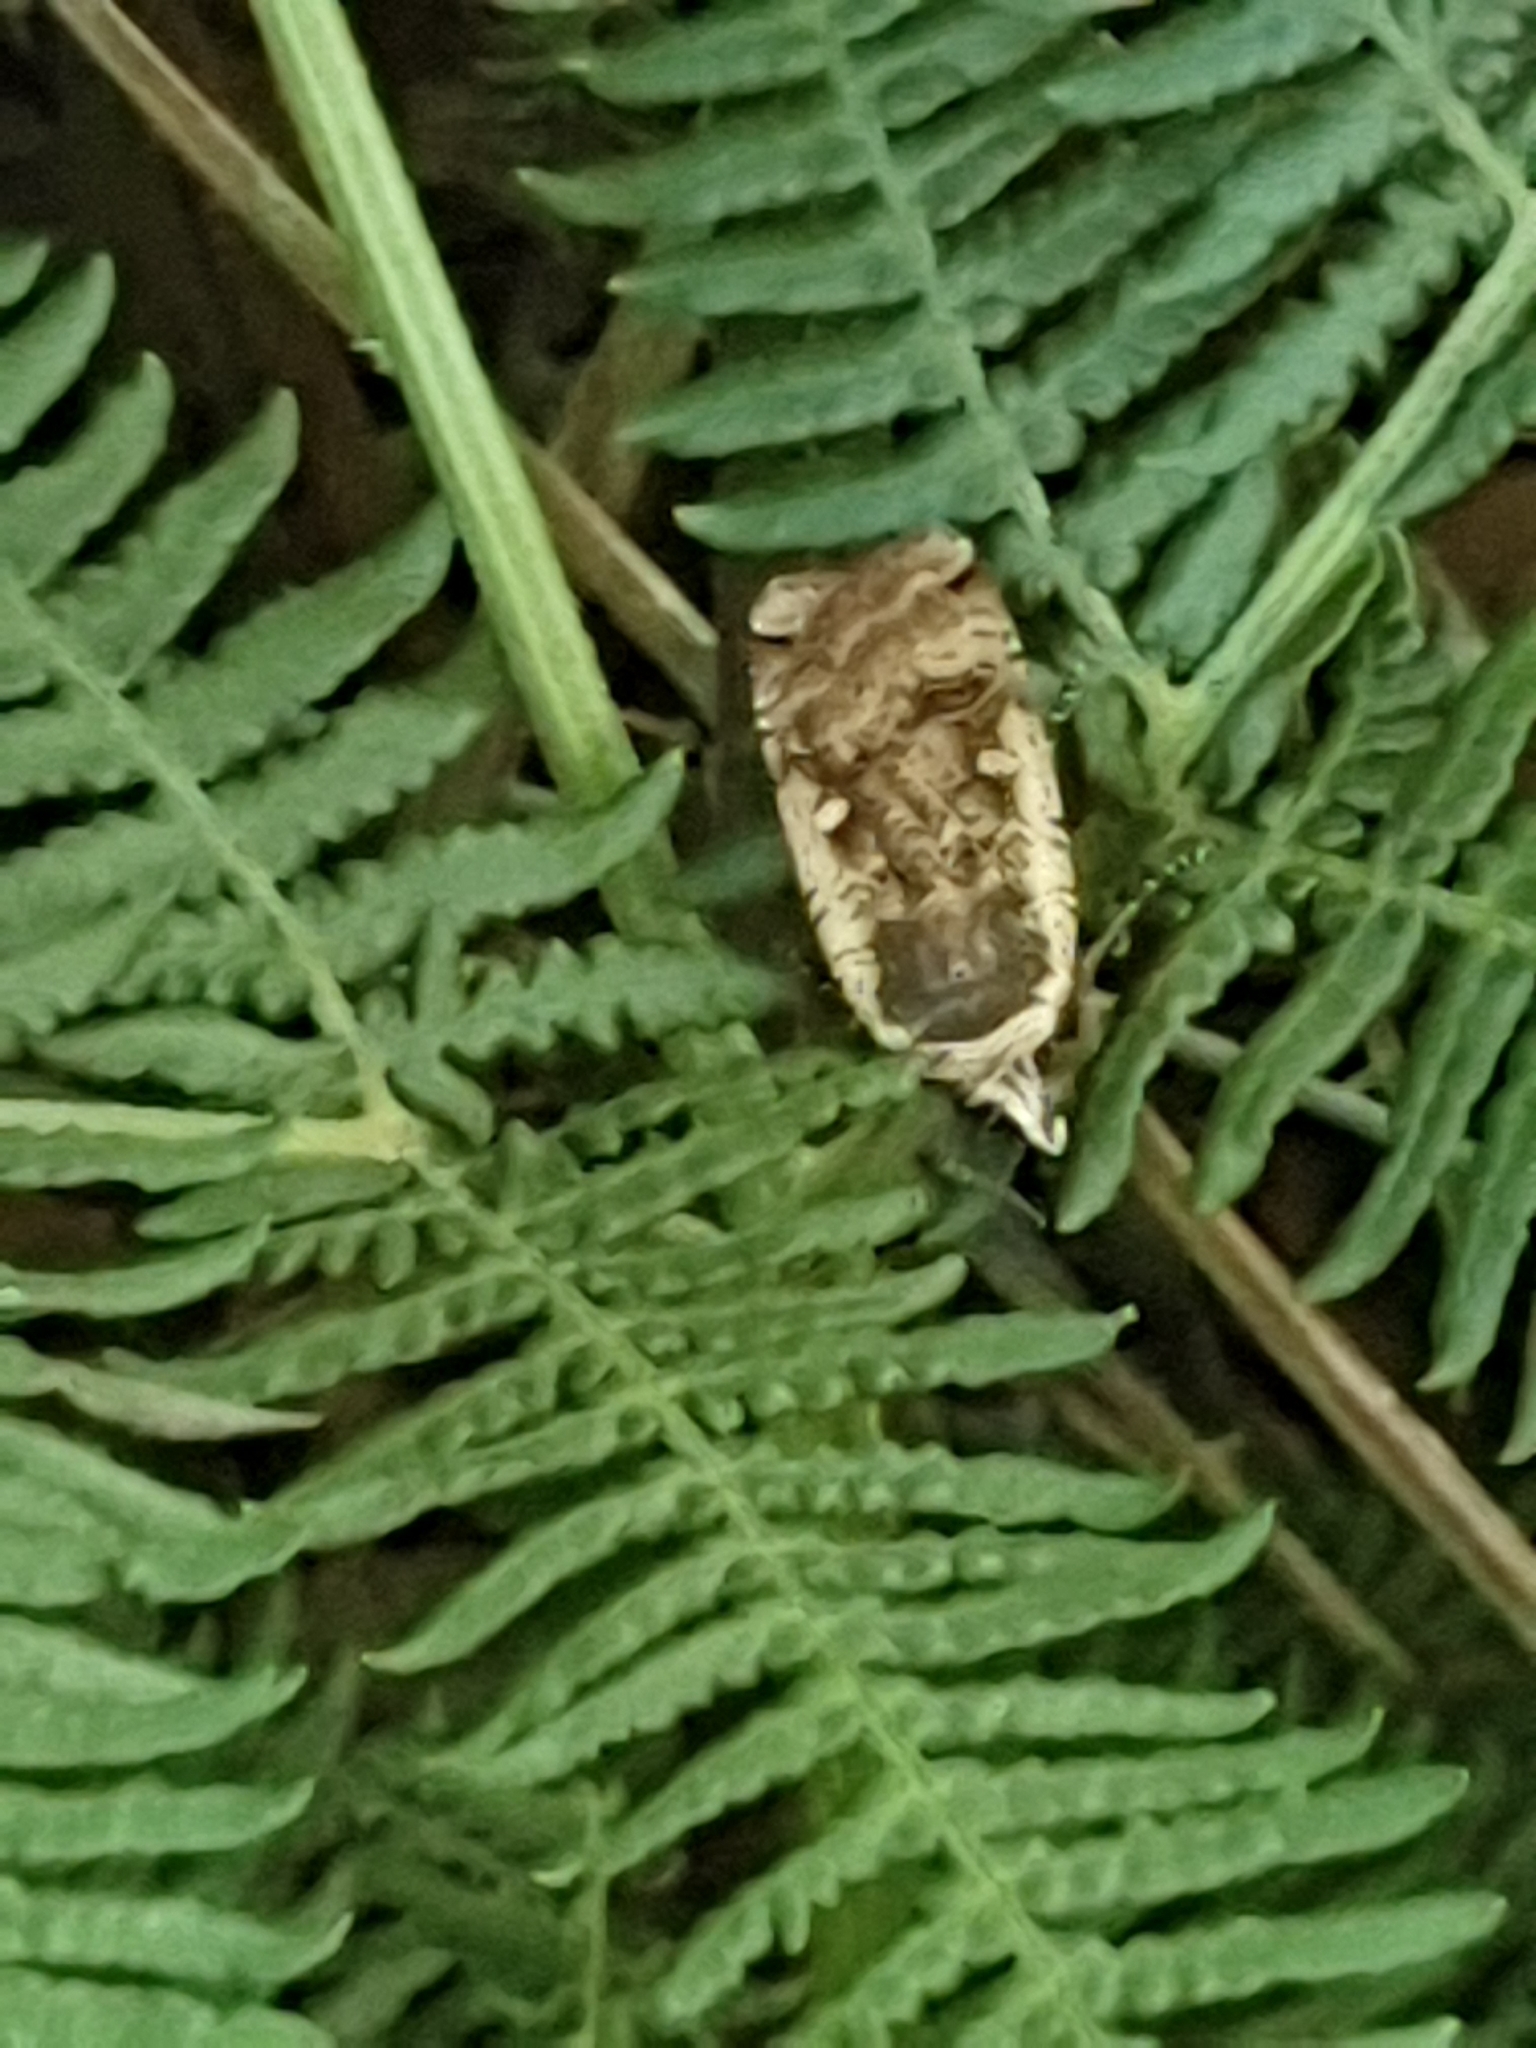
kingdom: Animalia
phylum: Arthropoda
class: Insecta
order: Lepidoptera
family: Noctuidae
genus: Noctua
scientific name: Noctua pronuba
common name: Large yellow underwing
